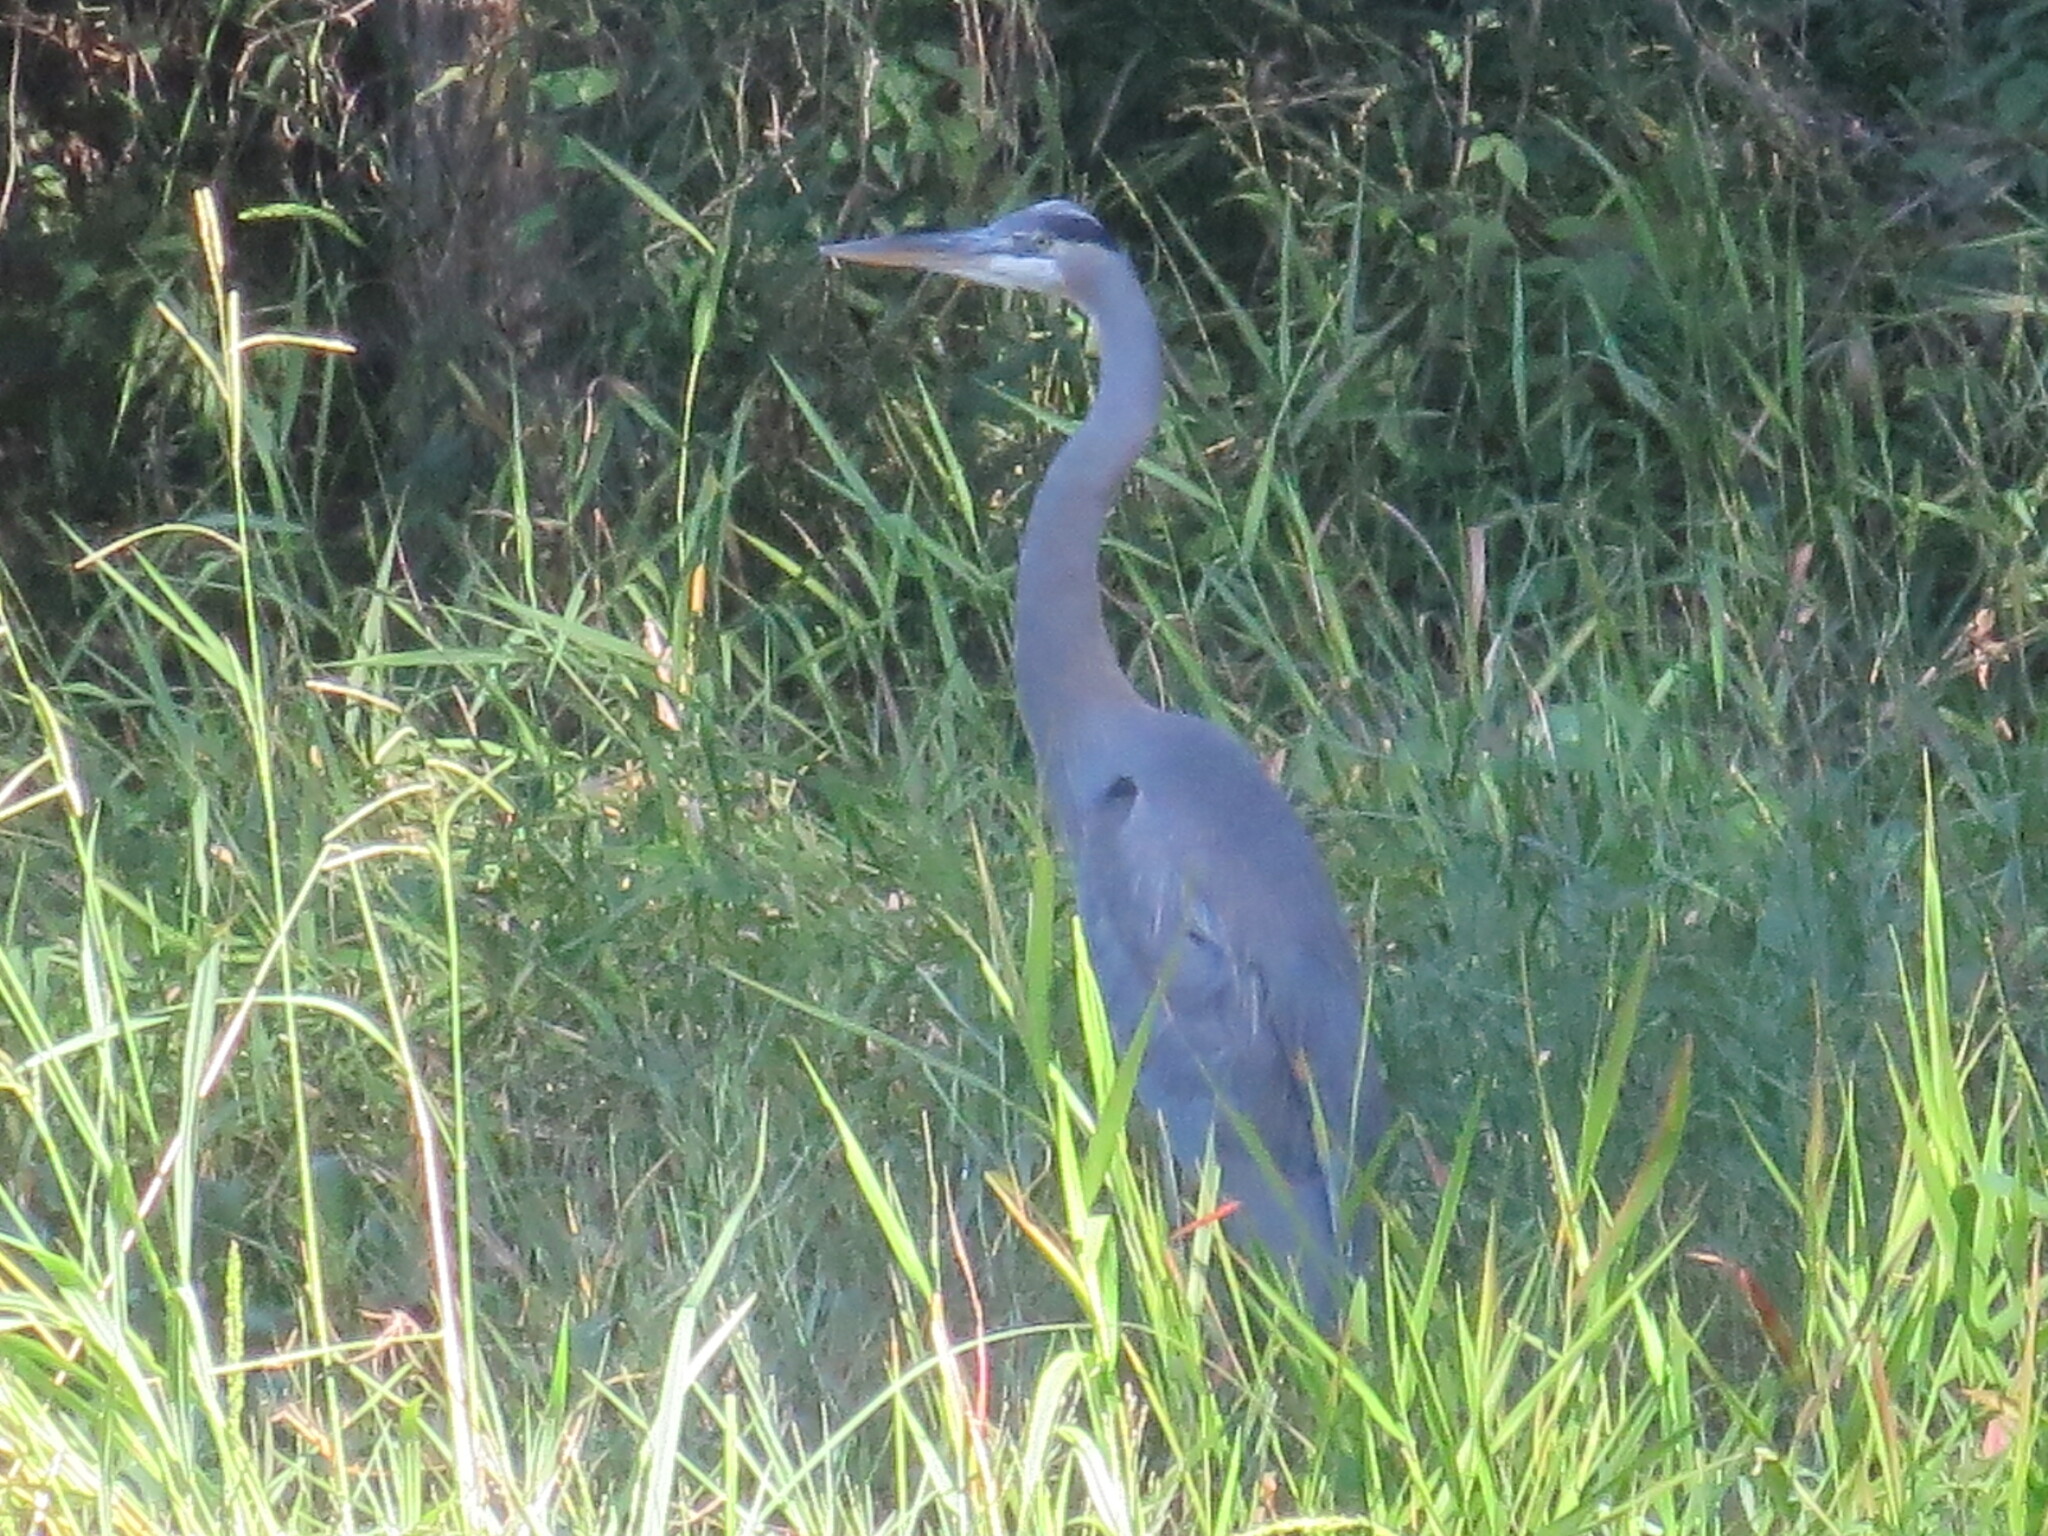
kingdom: Animalia
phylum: Chordata
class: Aves
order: Pelecaniformes
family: Ardeidae
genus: Ardea
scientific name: Ardea herodias
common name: Great blue heron
